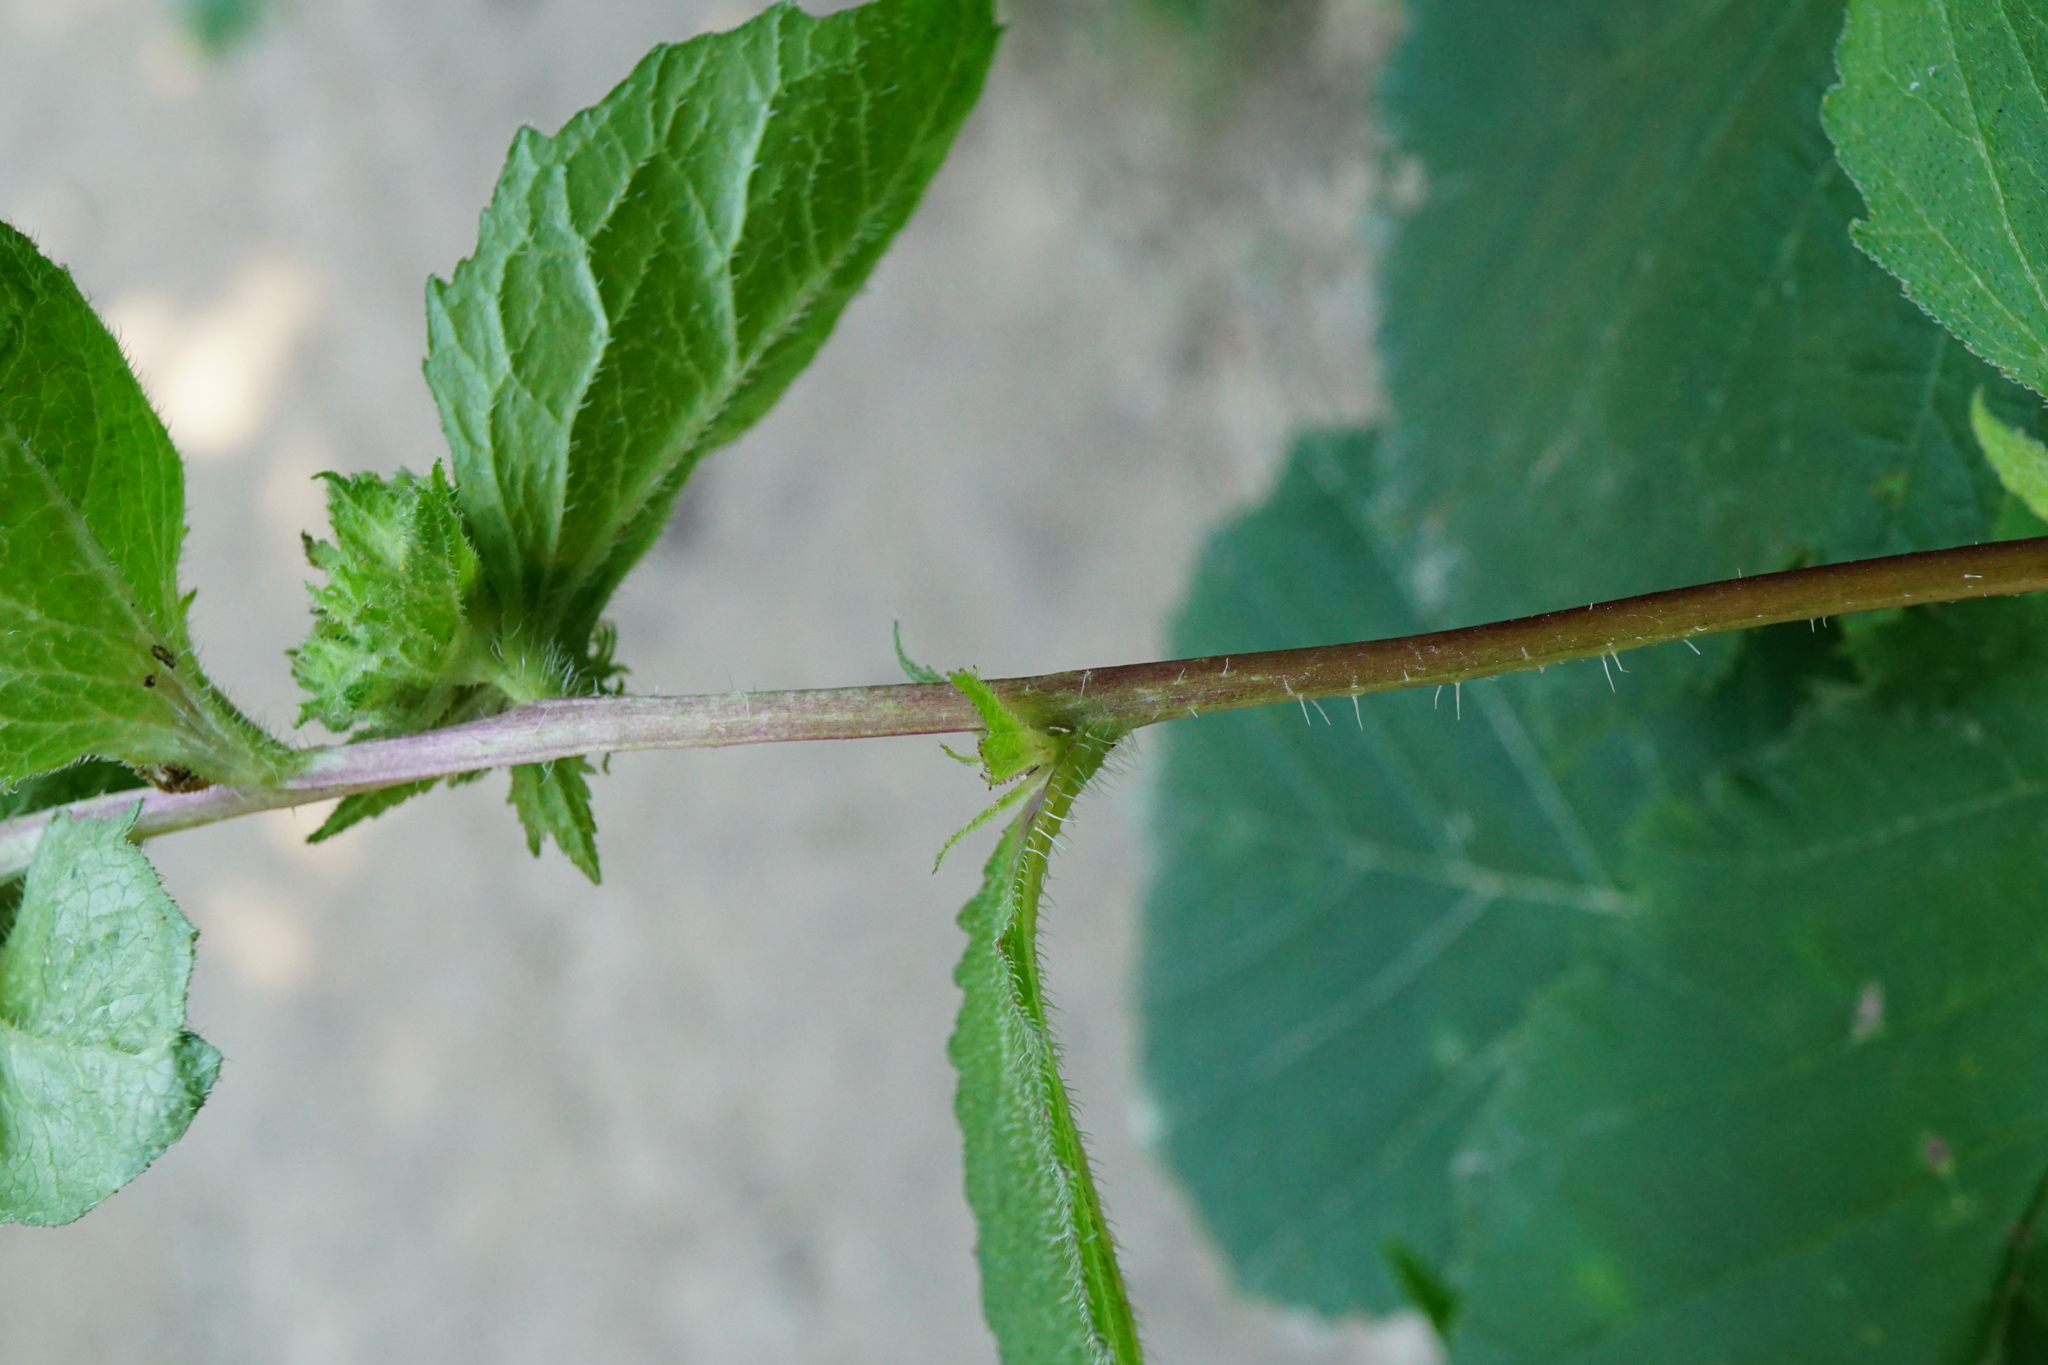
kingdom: Plantae
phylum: Tracheophyta
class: Magnoliopsida
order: Asterales
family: Campanulaceae
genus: Campanula
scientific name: Campanula trachelium
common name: Nettle-leaved bellflower
